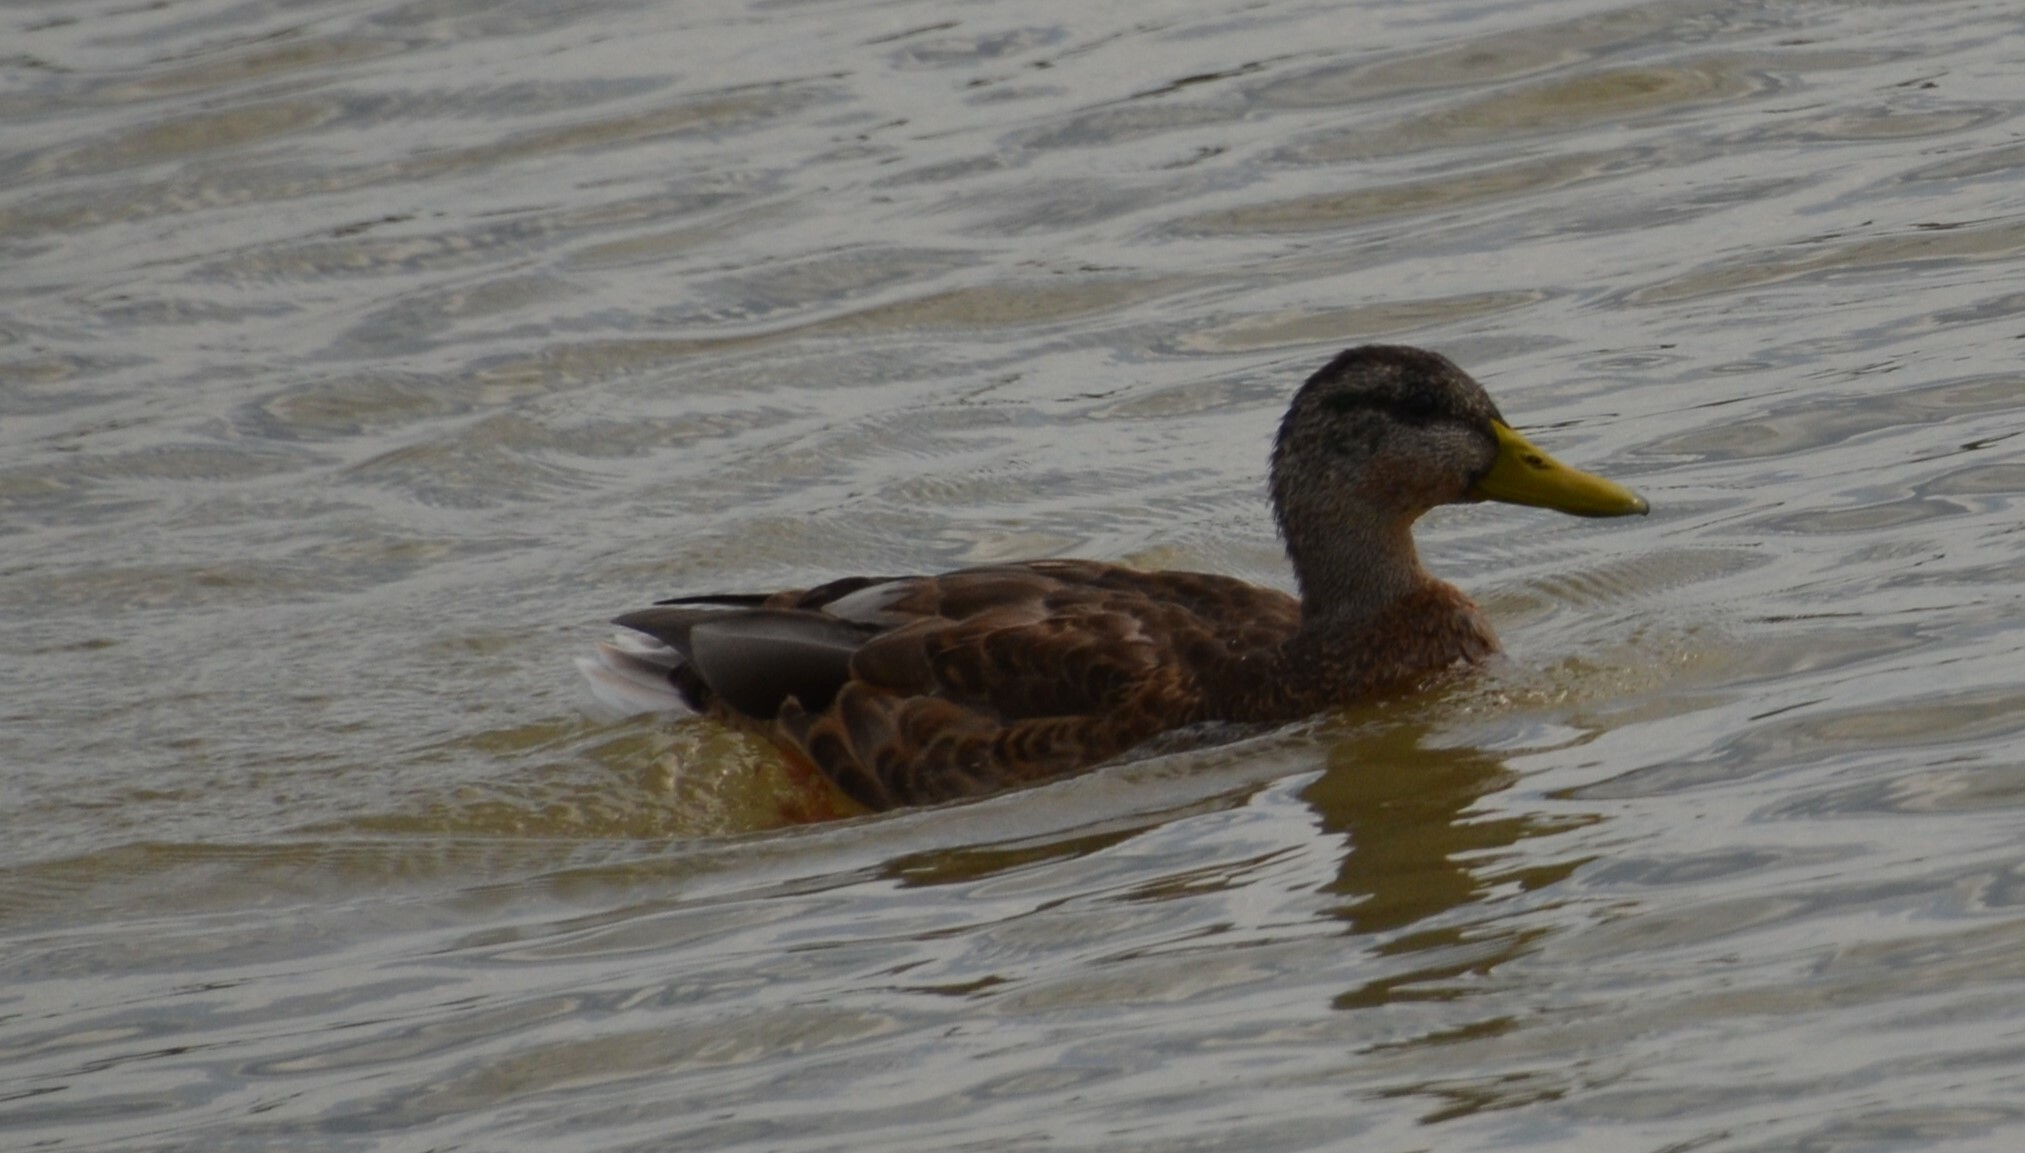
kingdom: Animalia
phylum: Chordata
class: Aves
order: Anseriformes
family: Anatidae
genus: Anas
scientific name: Anas platyrhynchos
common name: Mallard
